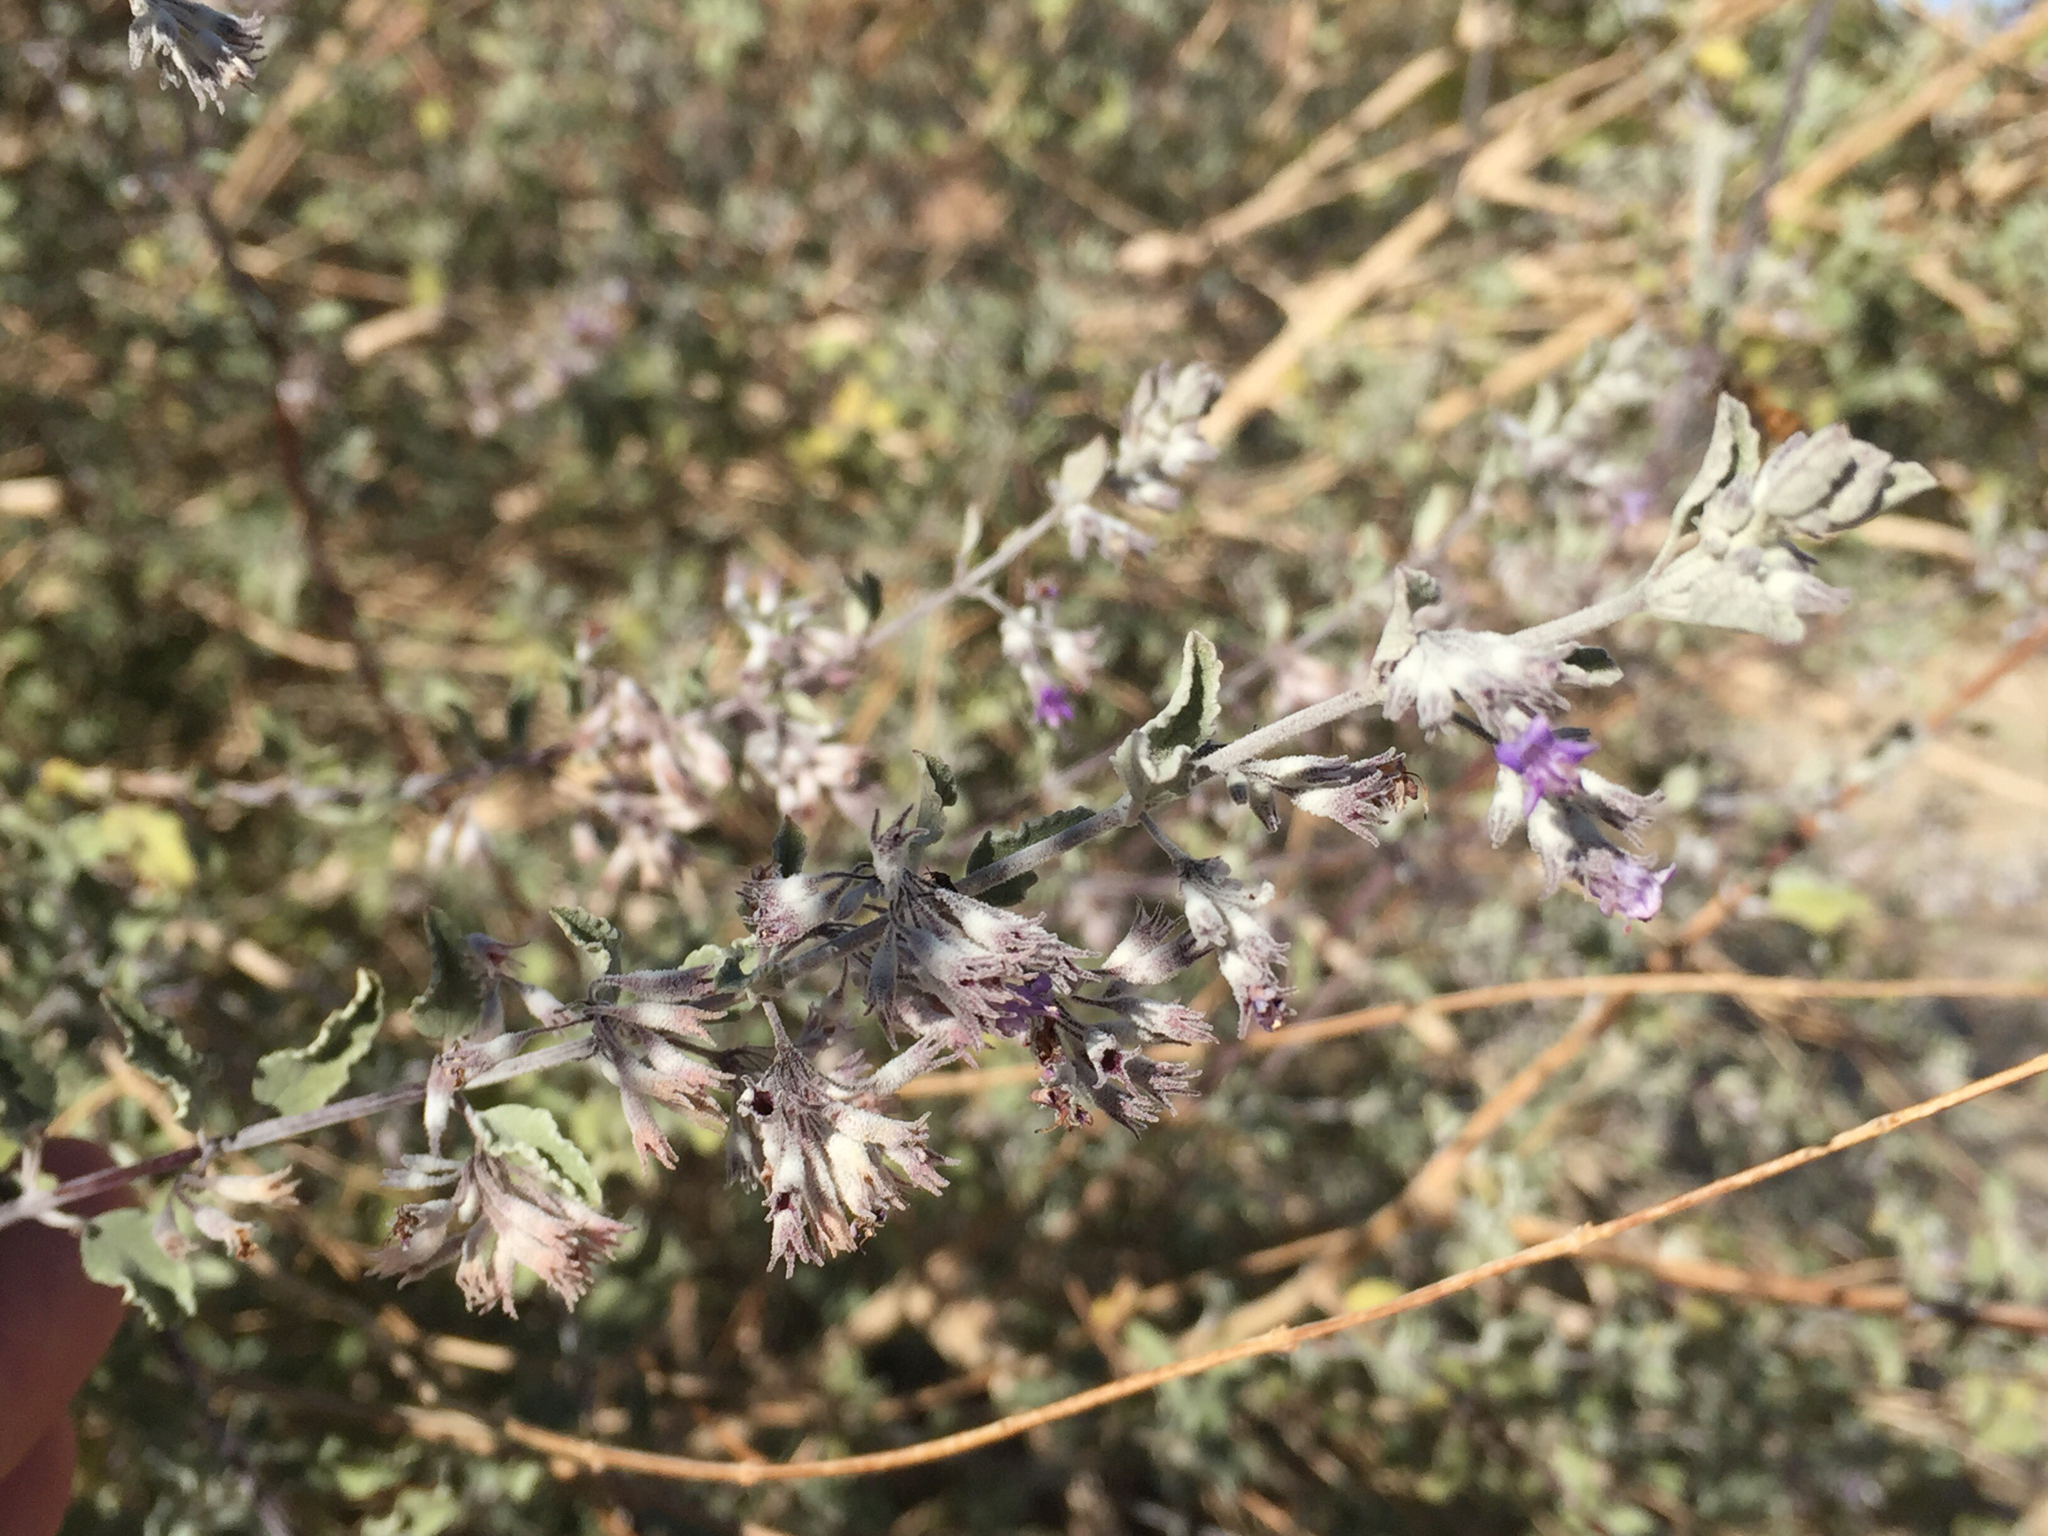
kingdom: Plantae
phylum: Tracheophyta
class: Magnoliopsida
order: Lamiales
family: Lamiaceae
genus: Condea
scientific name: Condea emoryi
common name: Chia
